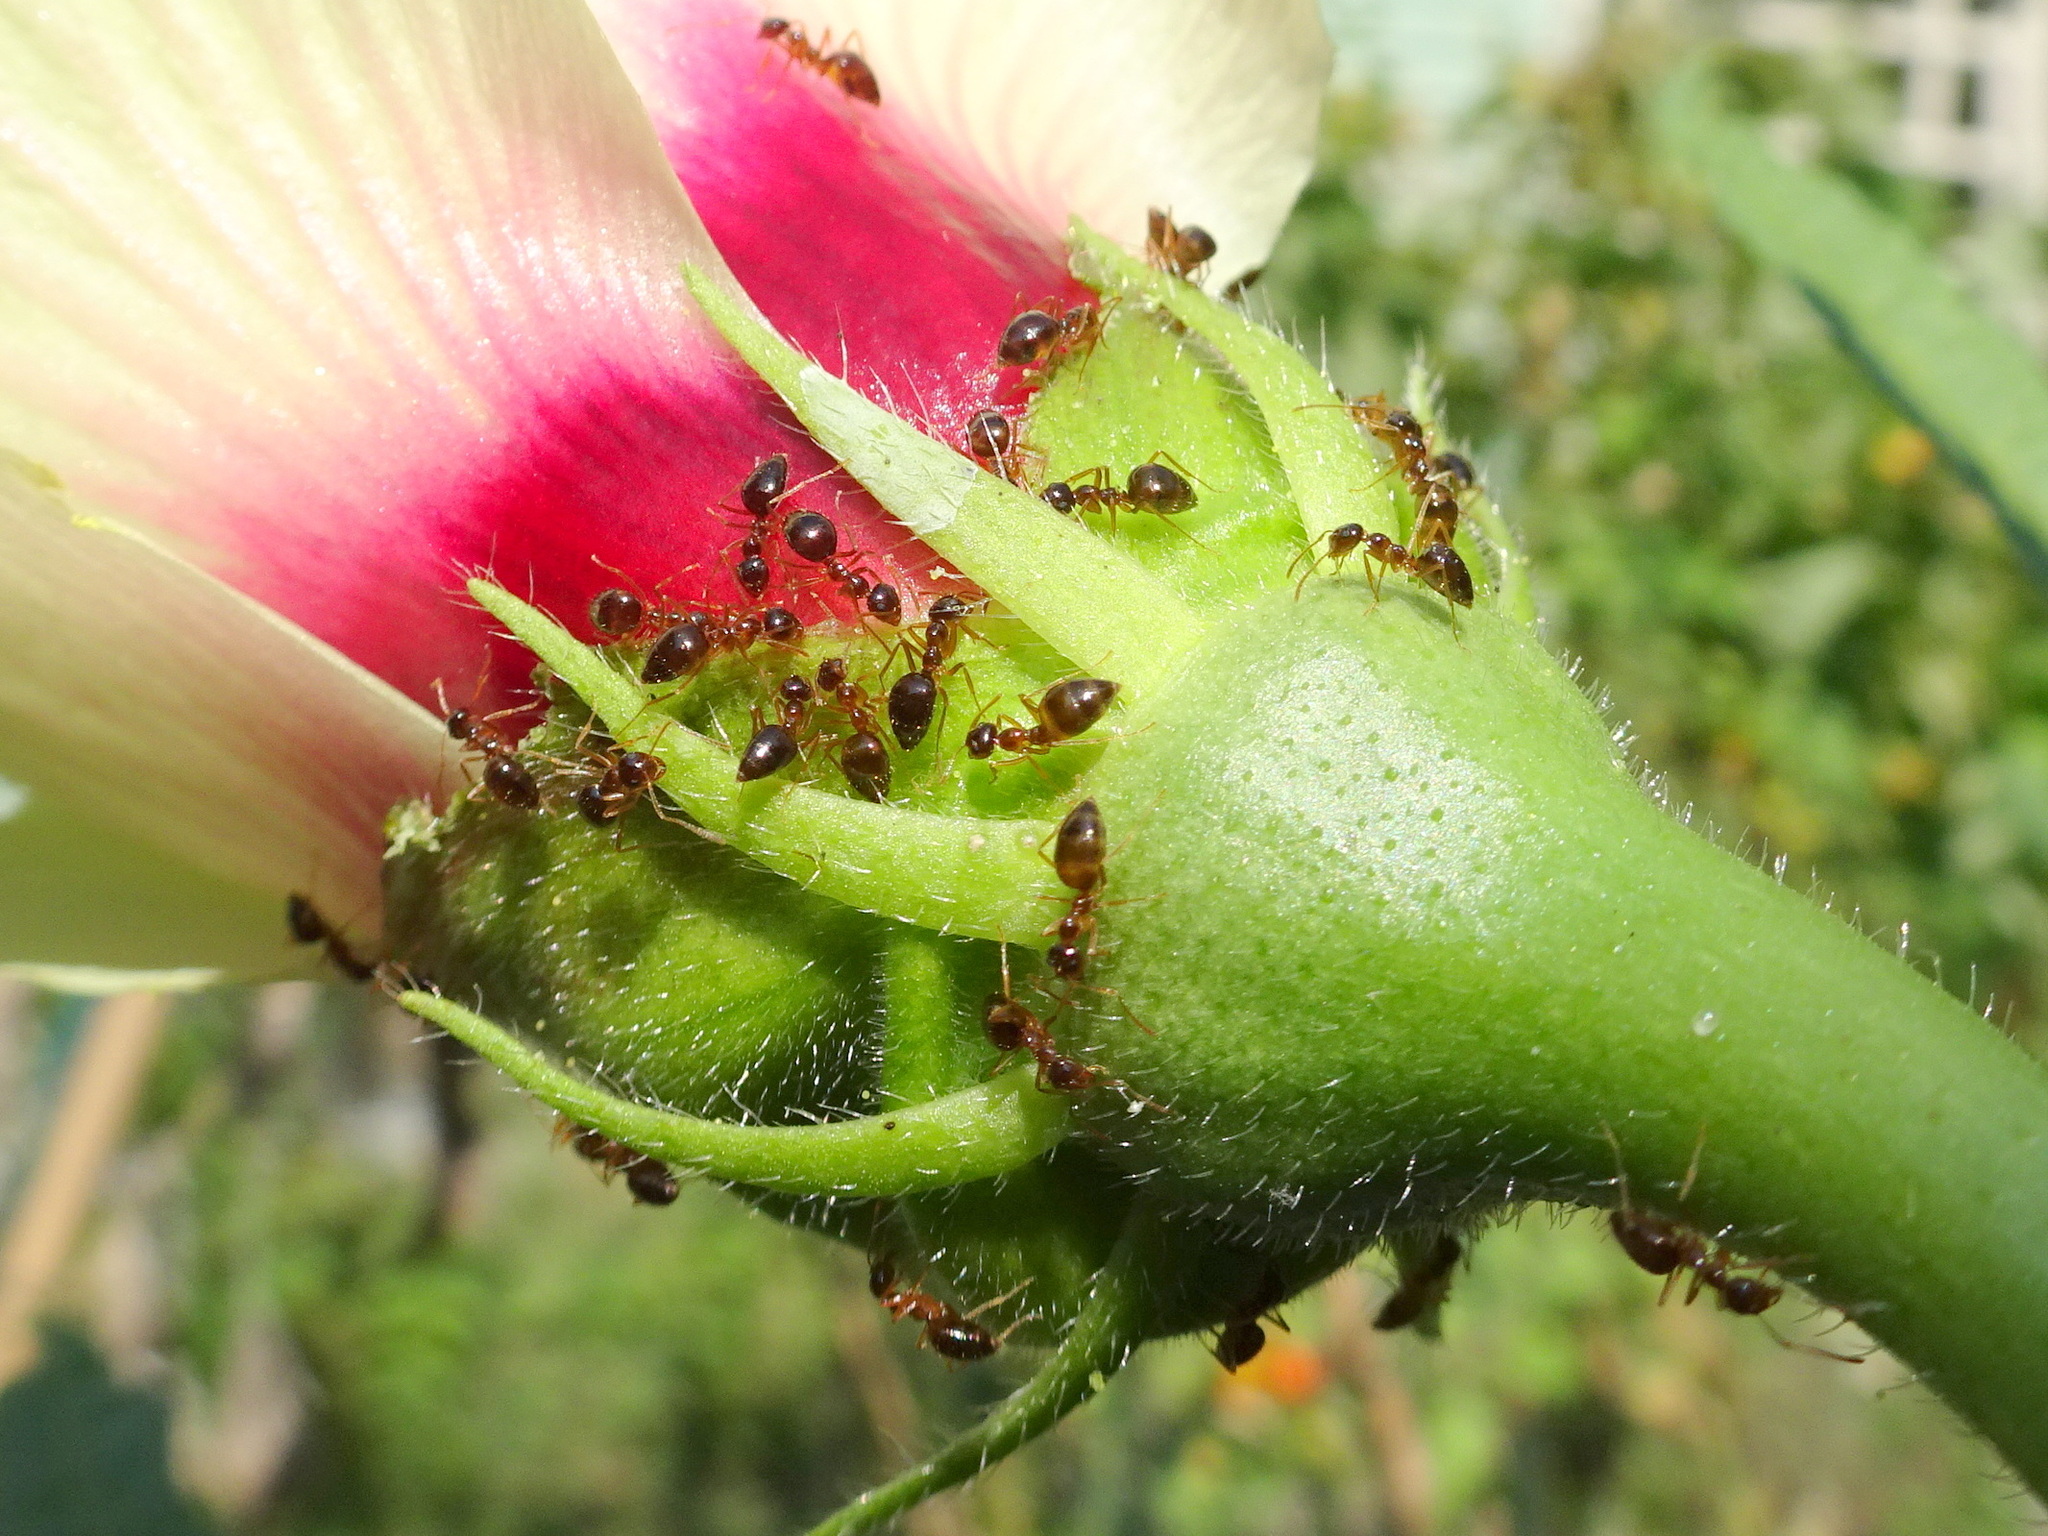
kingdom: Animalia
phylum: Arthropoda
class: Insecta
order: Hymenoptera
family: Formicidae
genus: Prenolepis
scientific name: Prenolepis imparis
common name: Small honey ant
